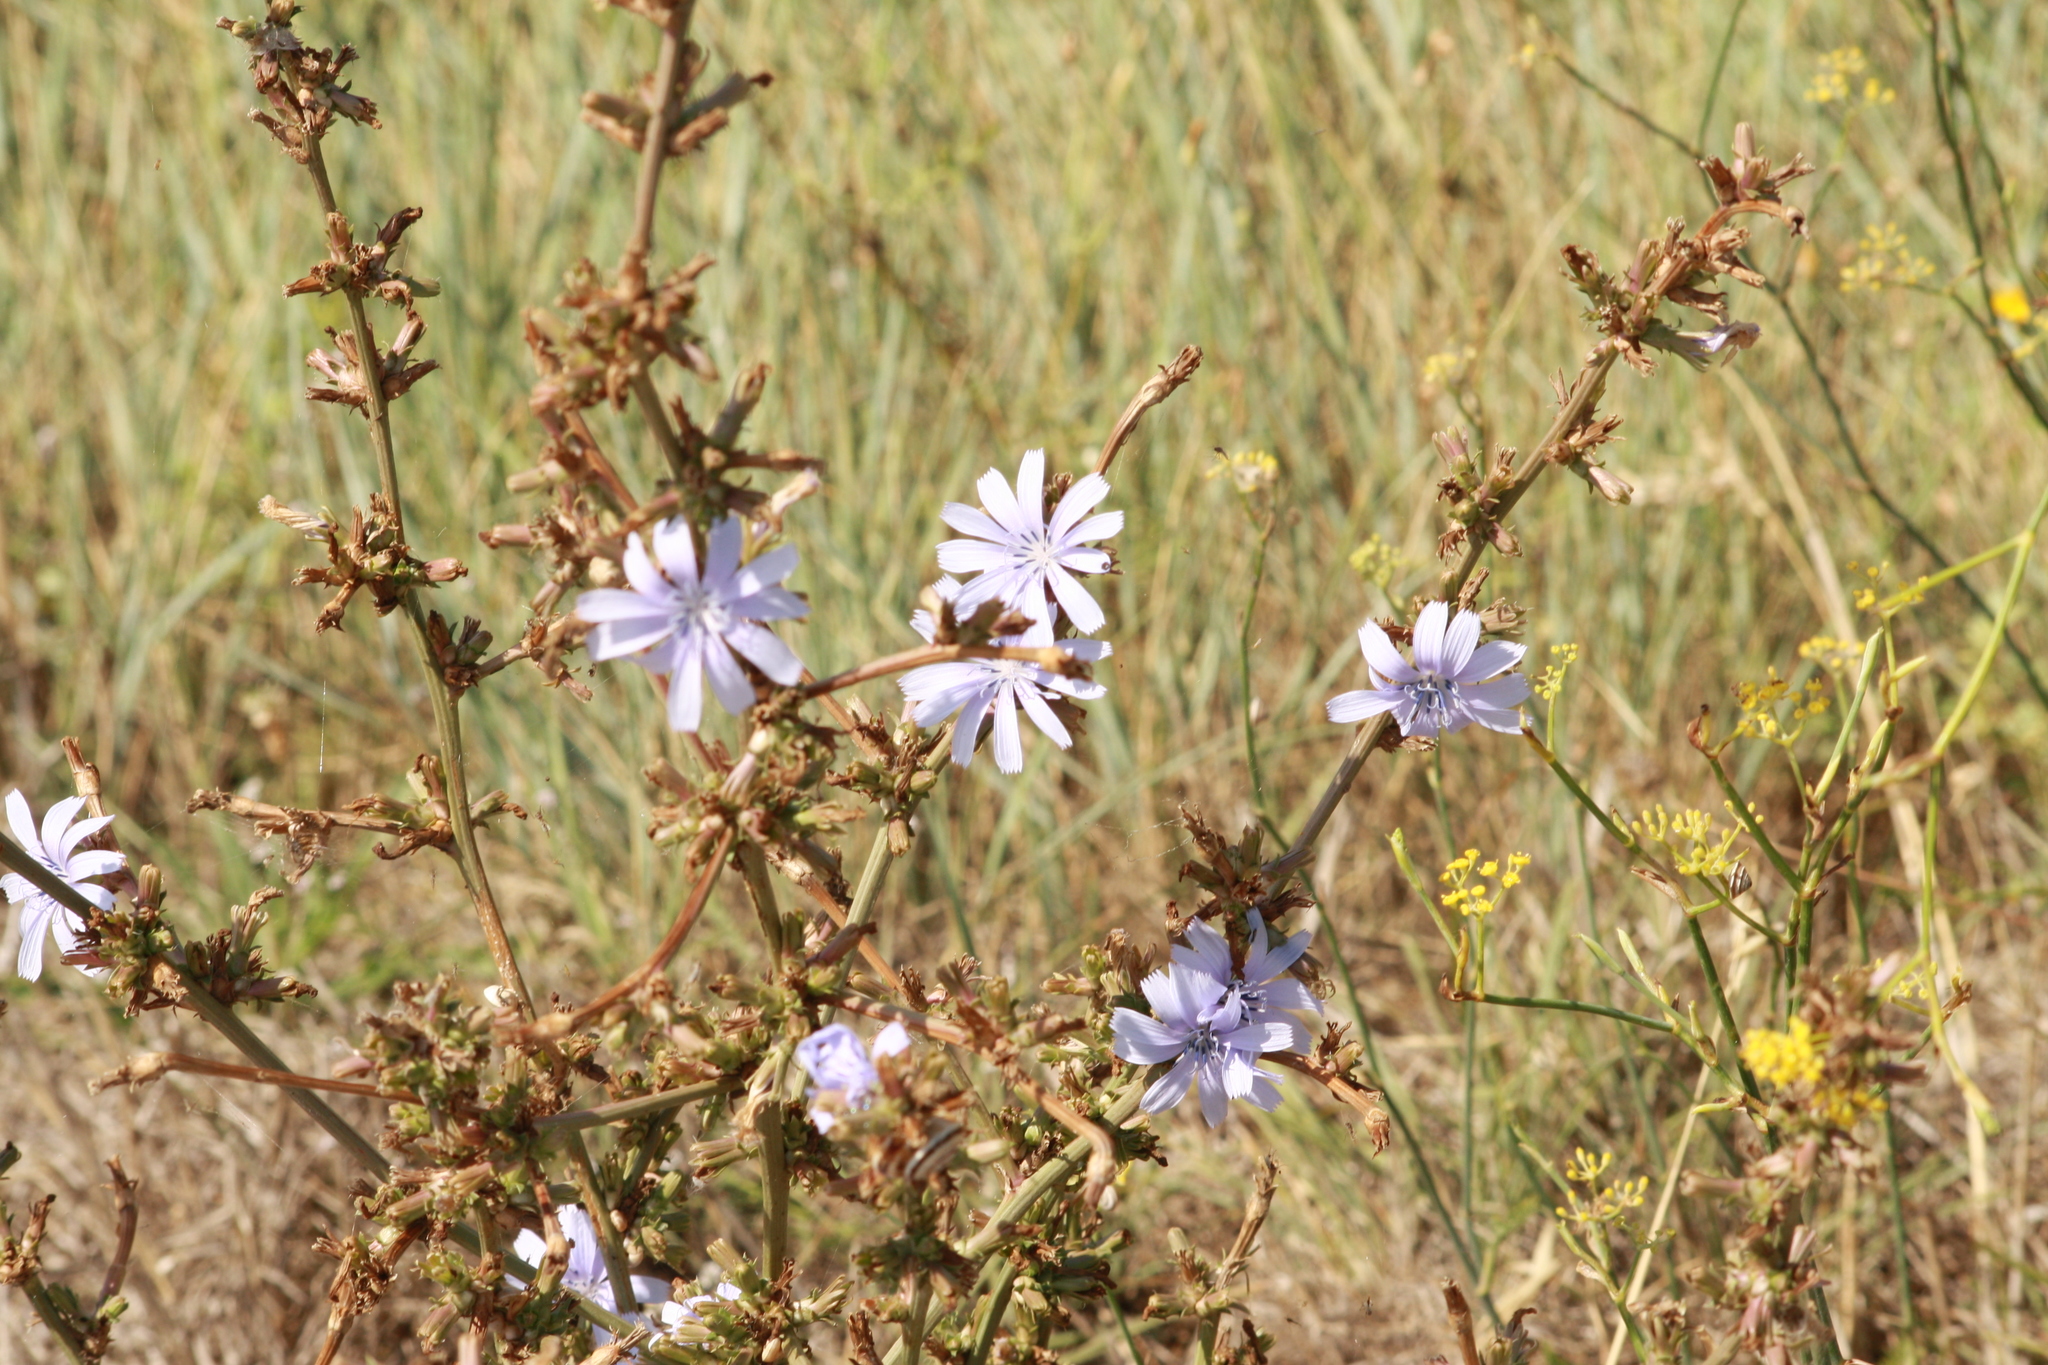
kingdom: Plantae
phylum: Tracheophyta
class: Magnoliopsida
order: Asterales
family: Asteraceae
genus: Cichorium
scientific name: Cichorium intybus
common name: Chicory
